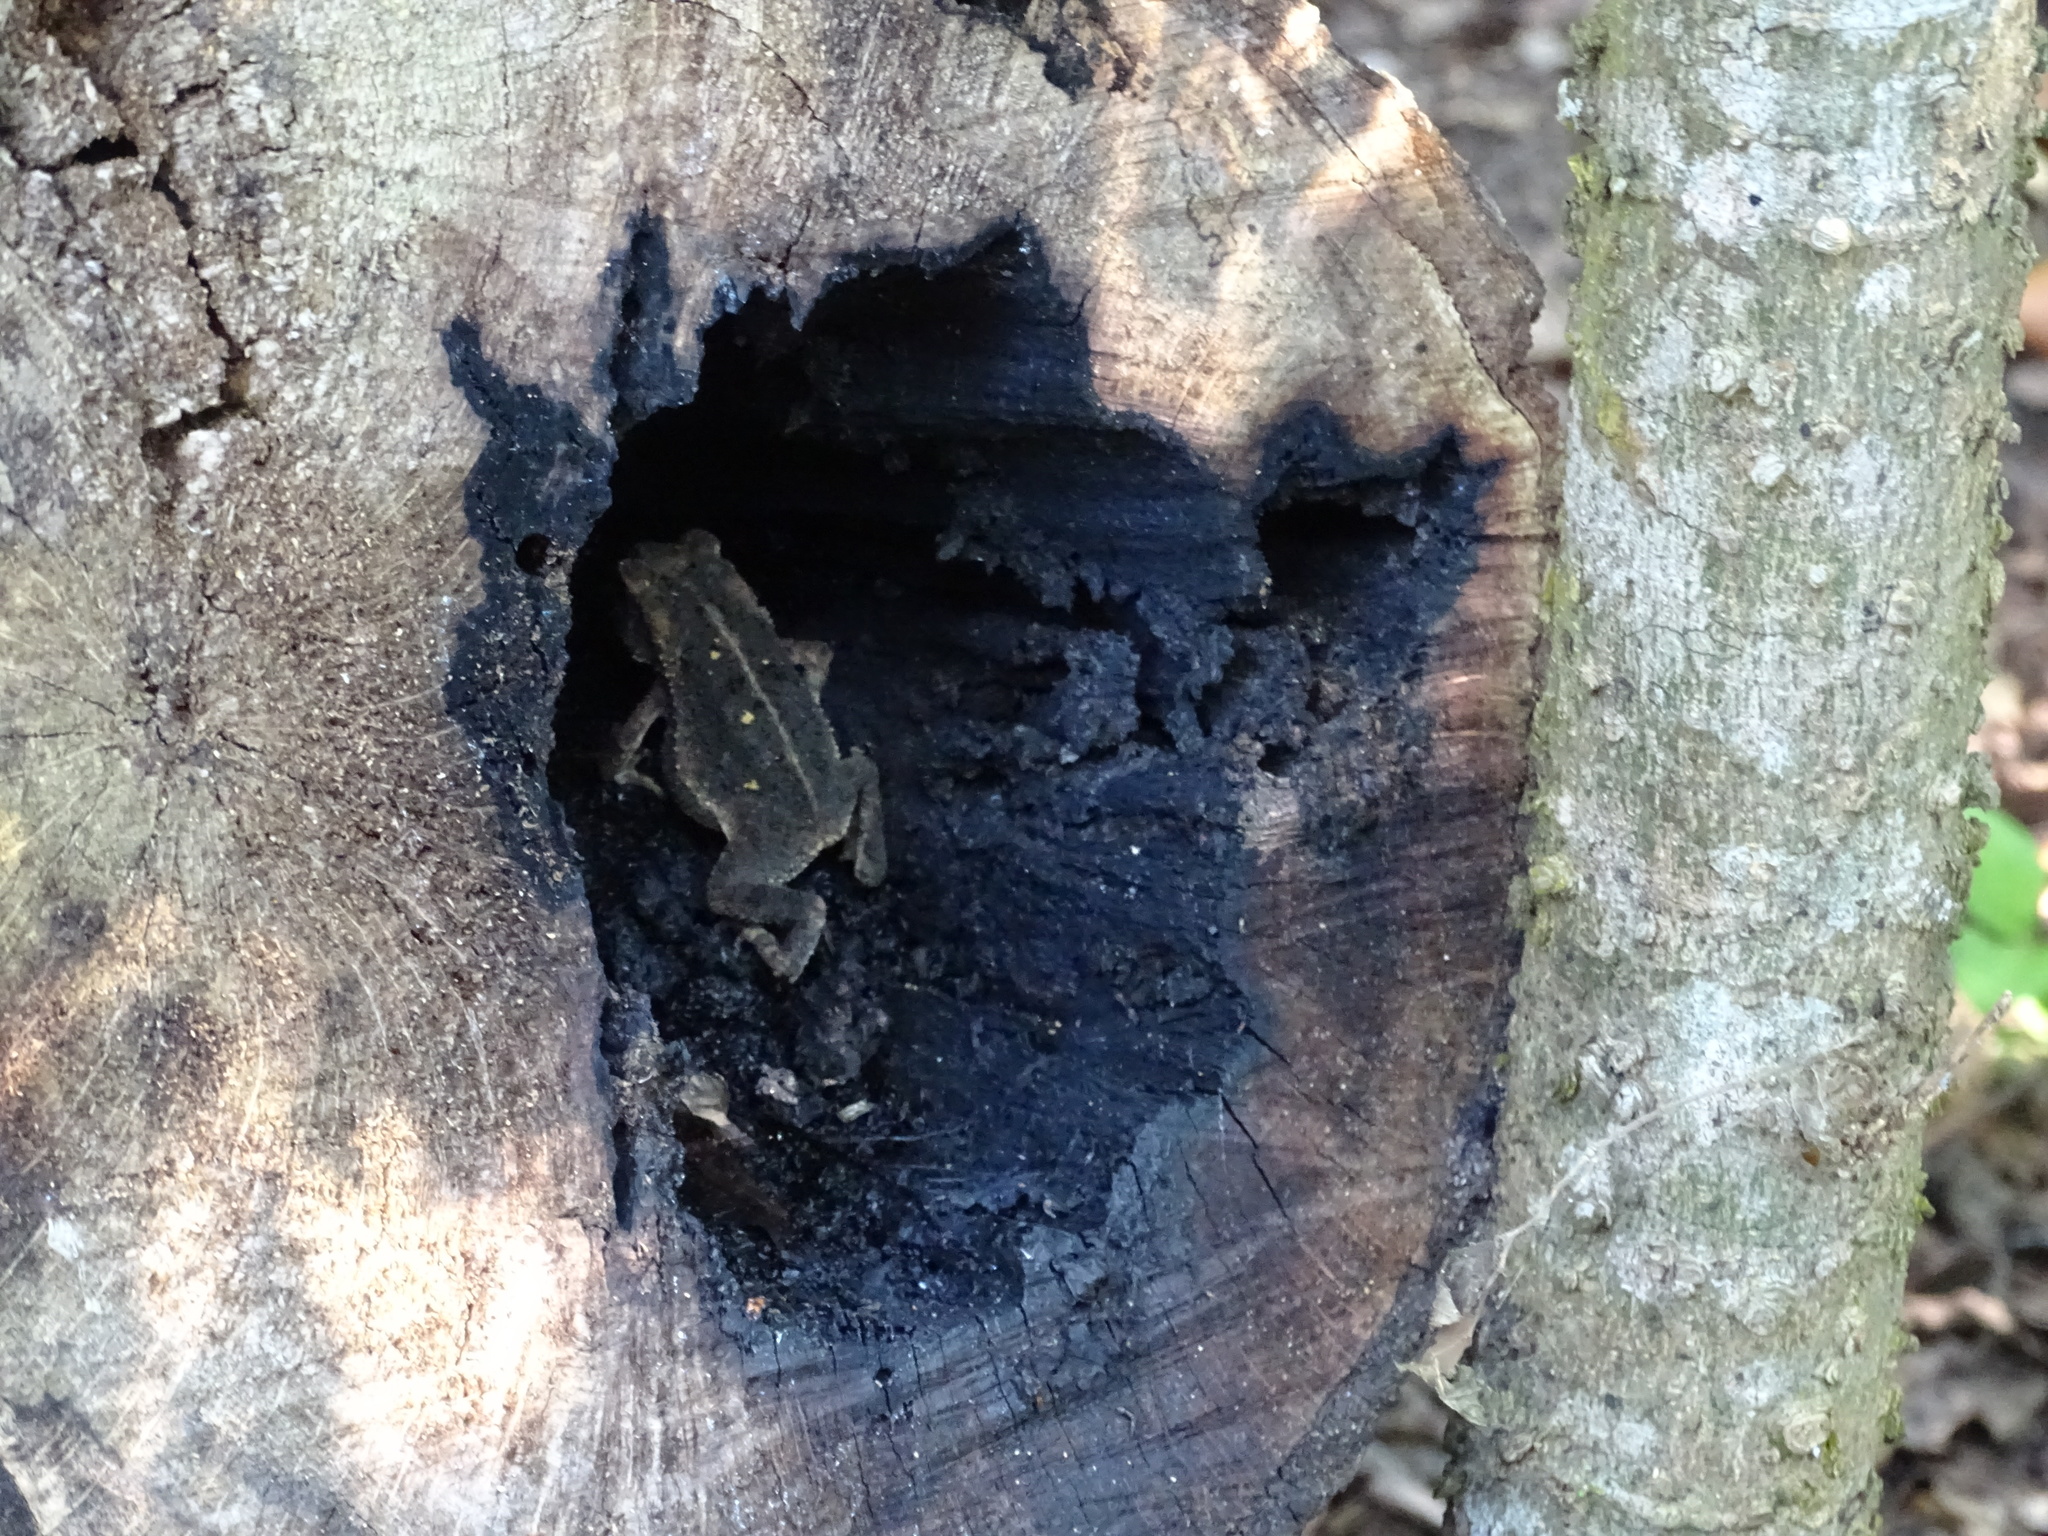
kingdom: Animalia
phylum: Chordata
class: Amphibia
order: Anura
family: Bufonidae
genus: Incilius
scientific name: Incilius nebulifer
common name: Gulf coast toad
